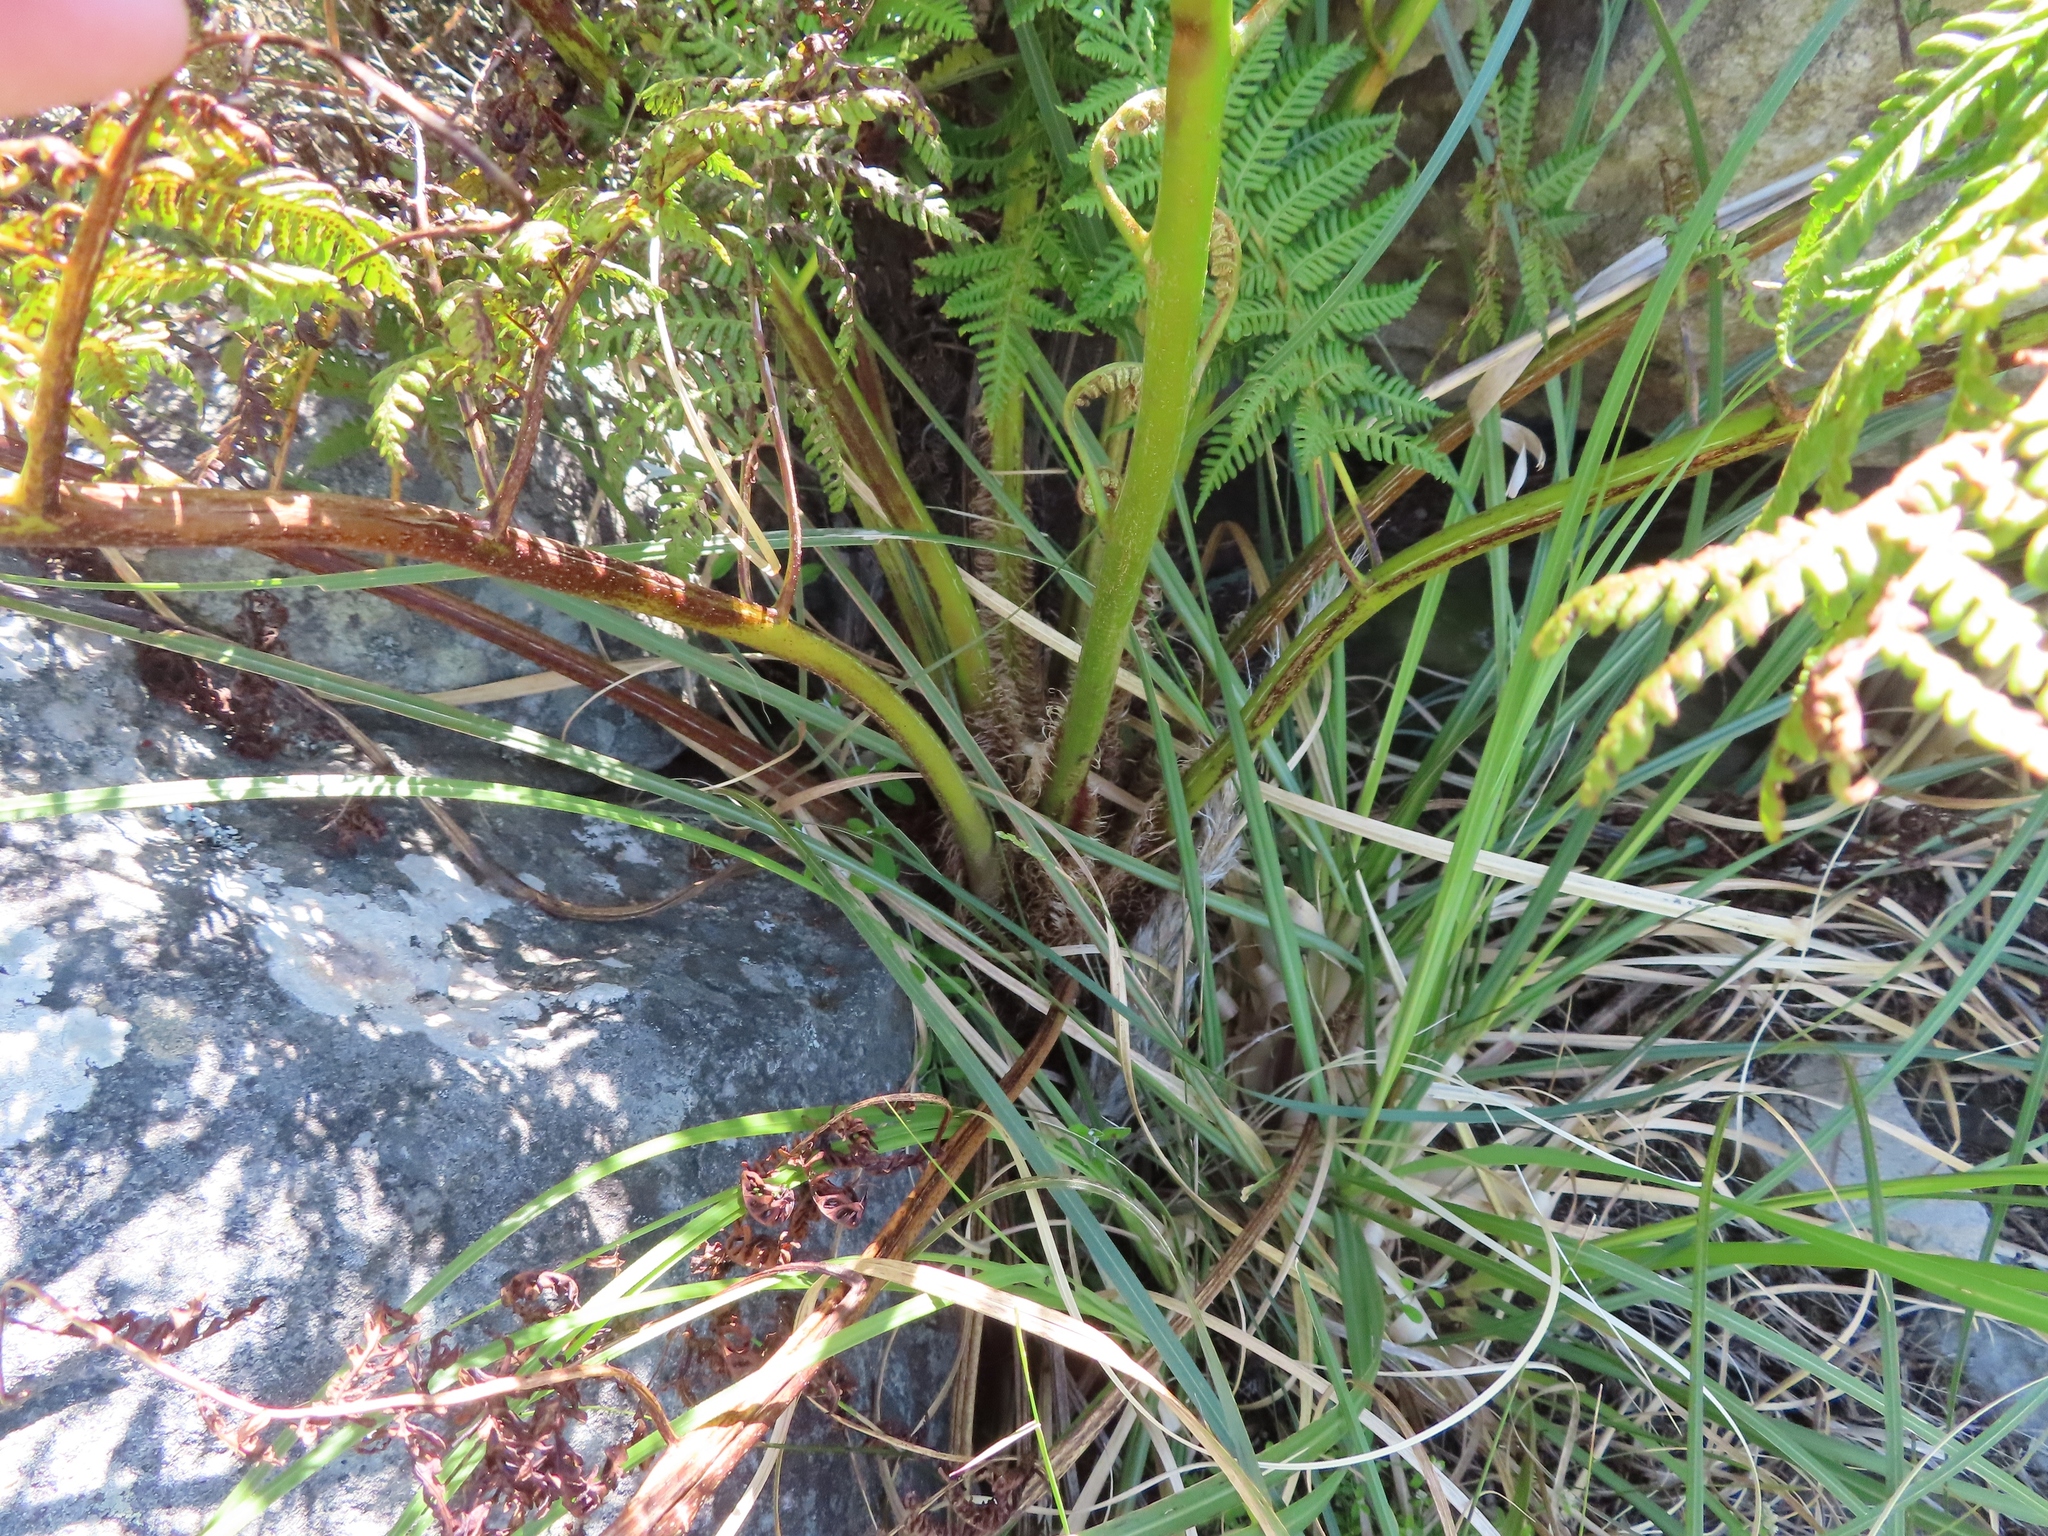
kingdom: Plantae
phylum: Tracheophyta
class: Polypodiopsida
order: Cyatheales
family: Cyatheaceae
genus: Sphaeropteris
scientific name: Sphaeropteris cooperi
